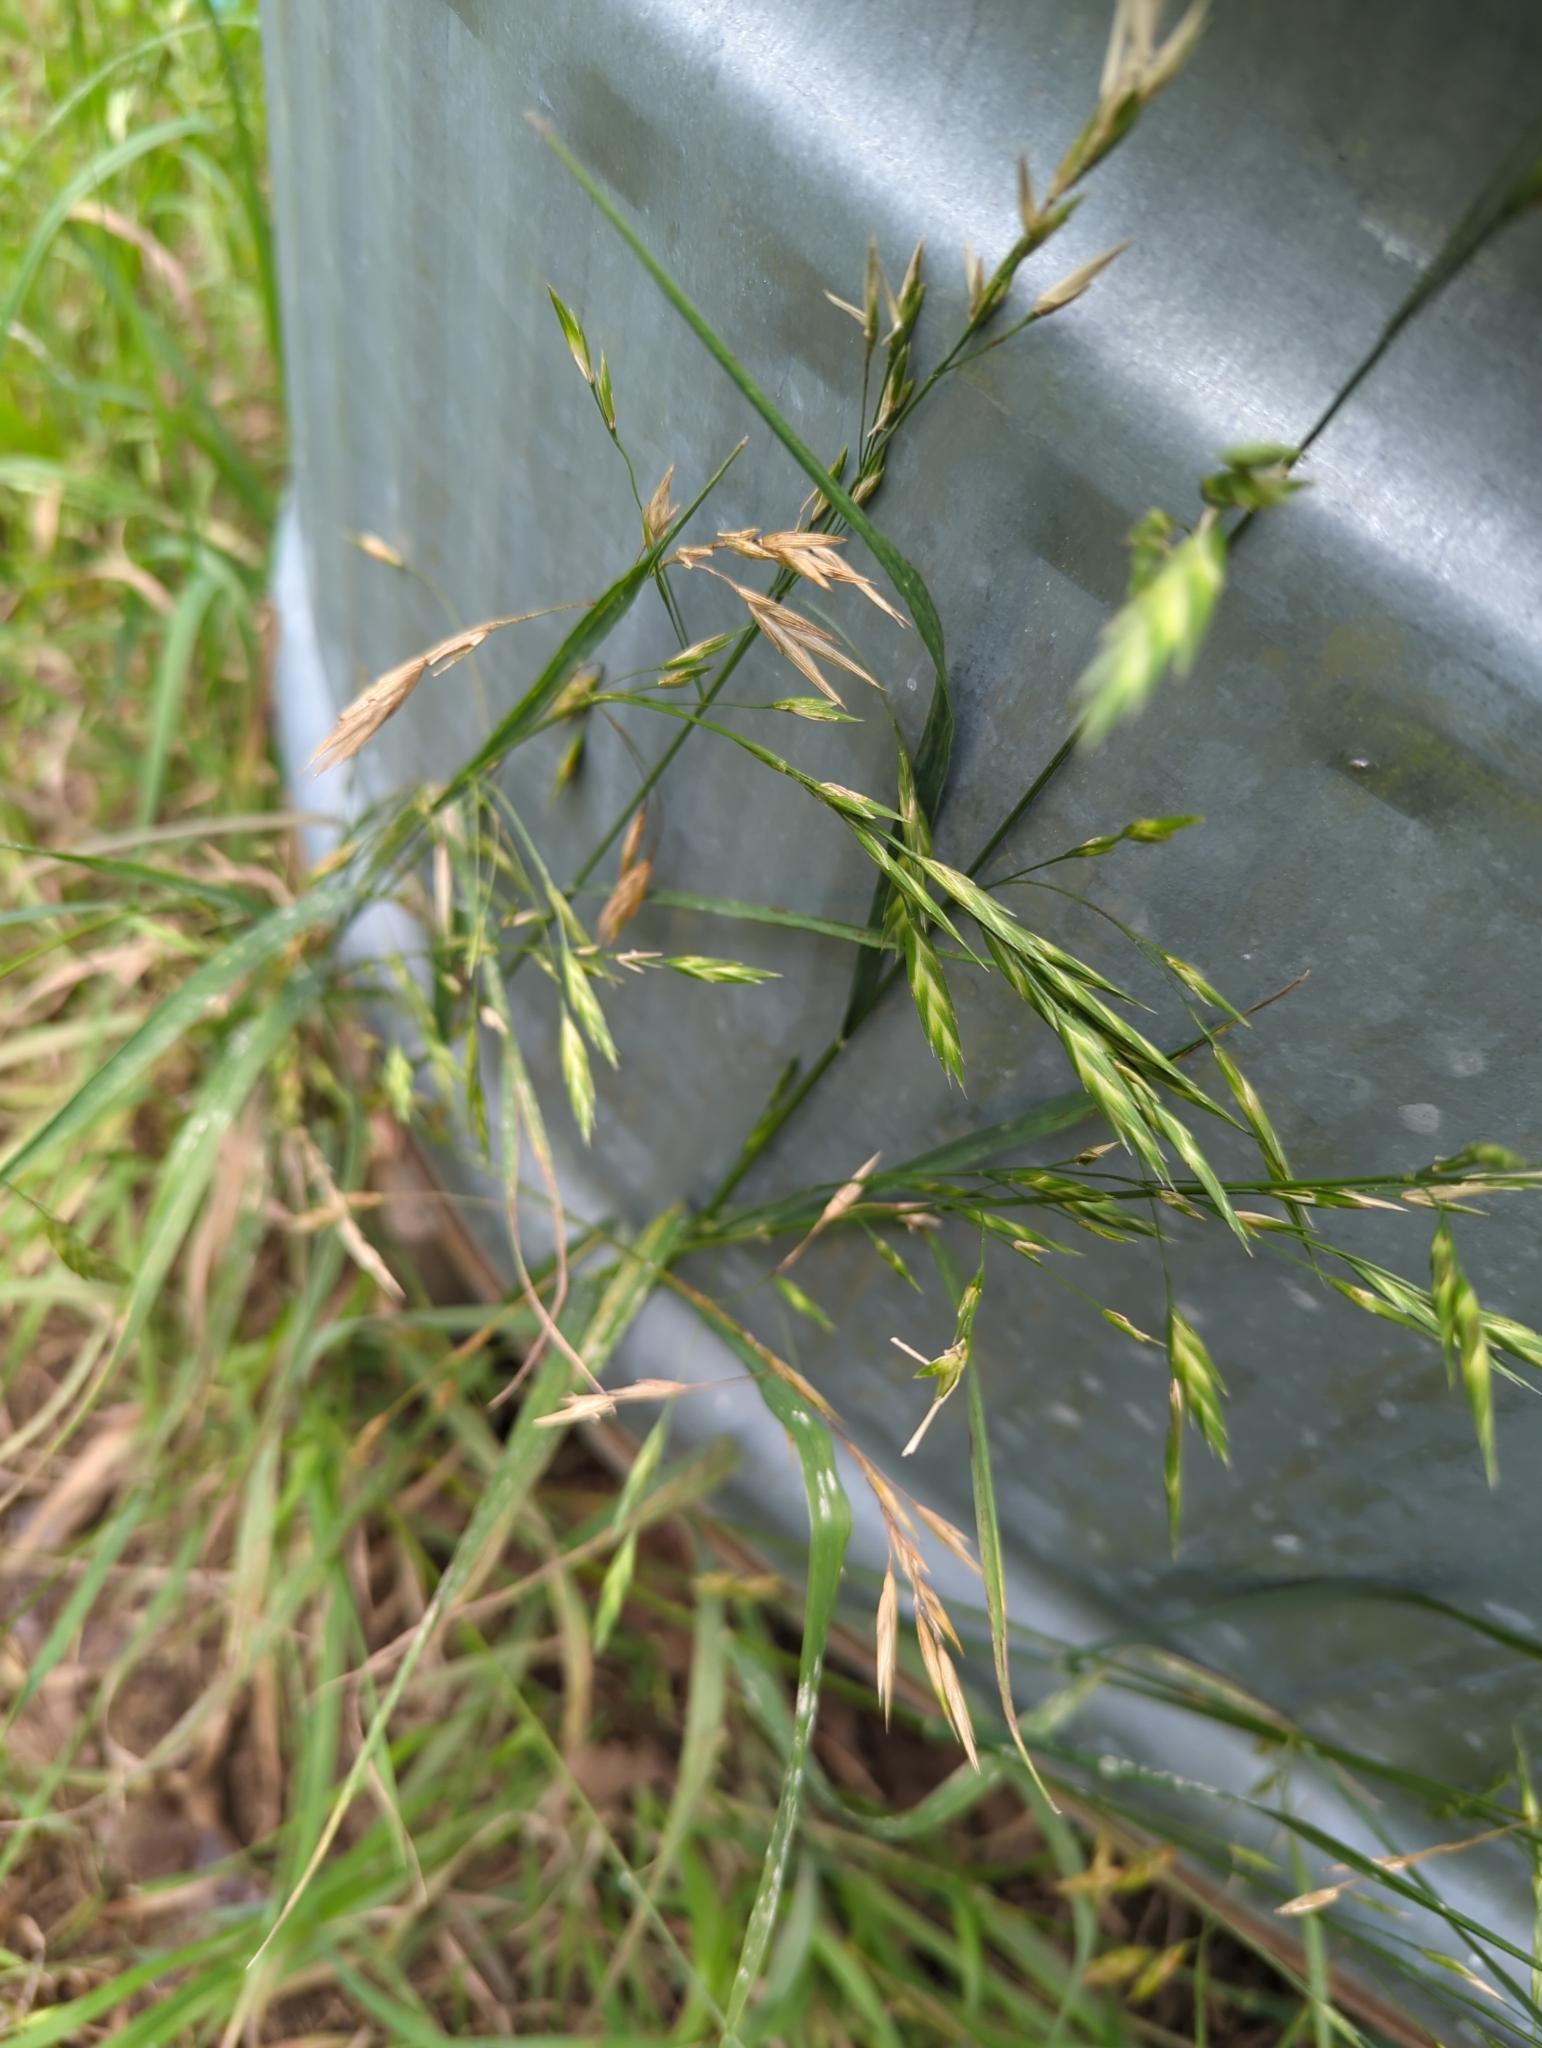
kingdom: Plantae
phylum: Tracheophyta
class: Liliopsida
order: Poales
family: Poaceae
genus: Bromus
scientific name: Bromus catharticus
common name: Rescuegrass
